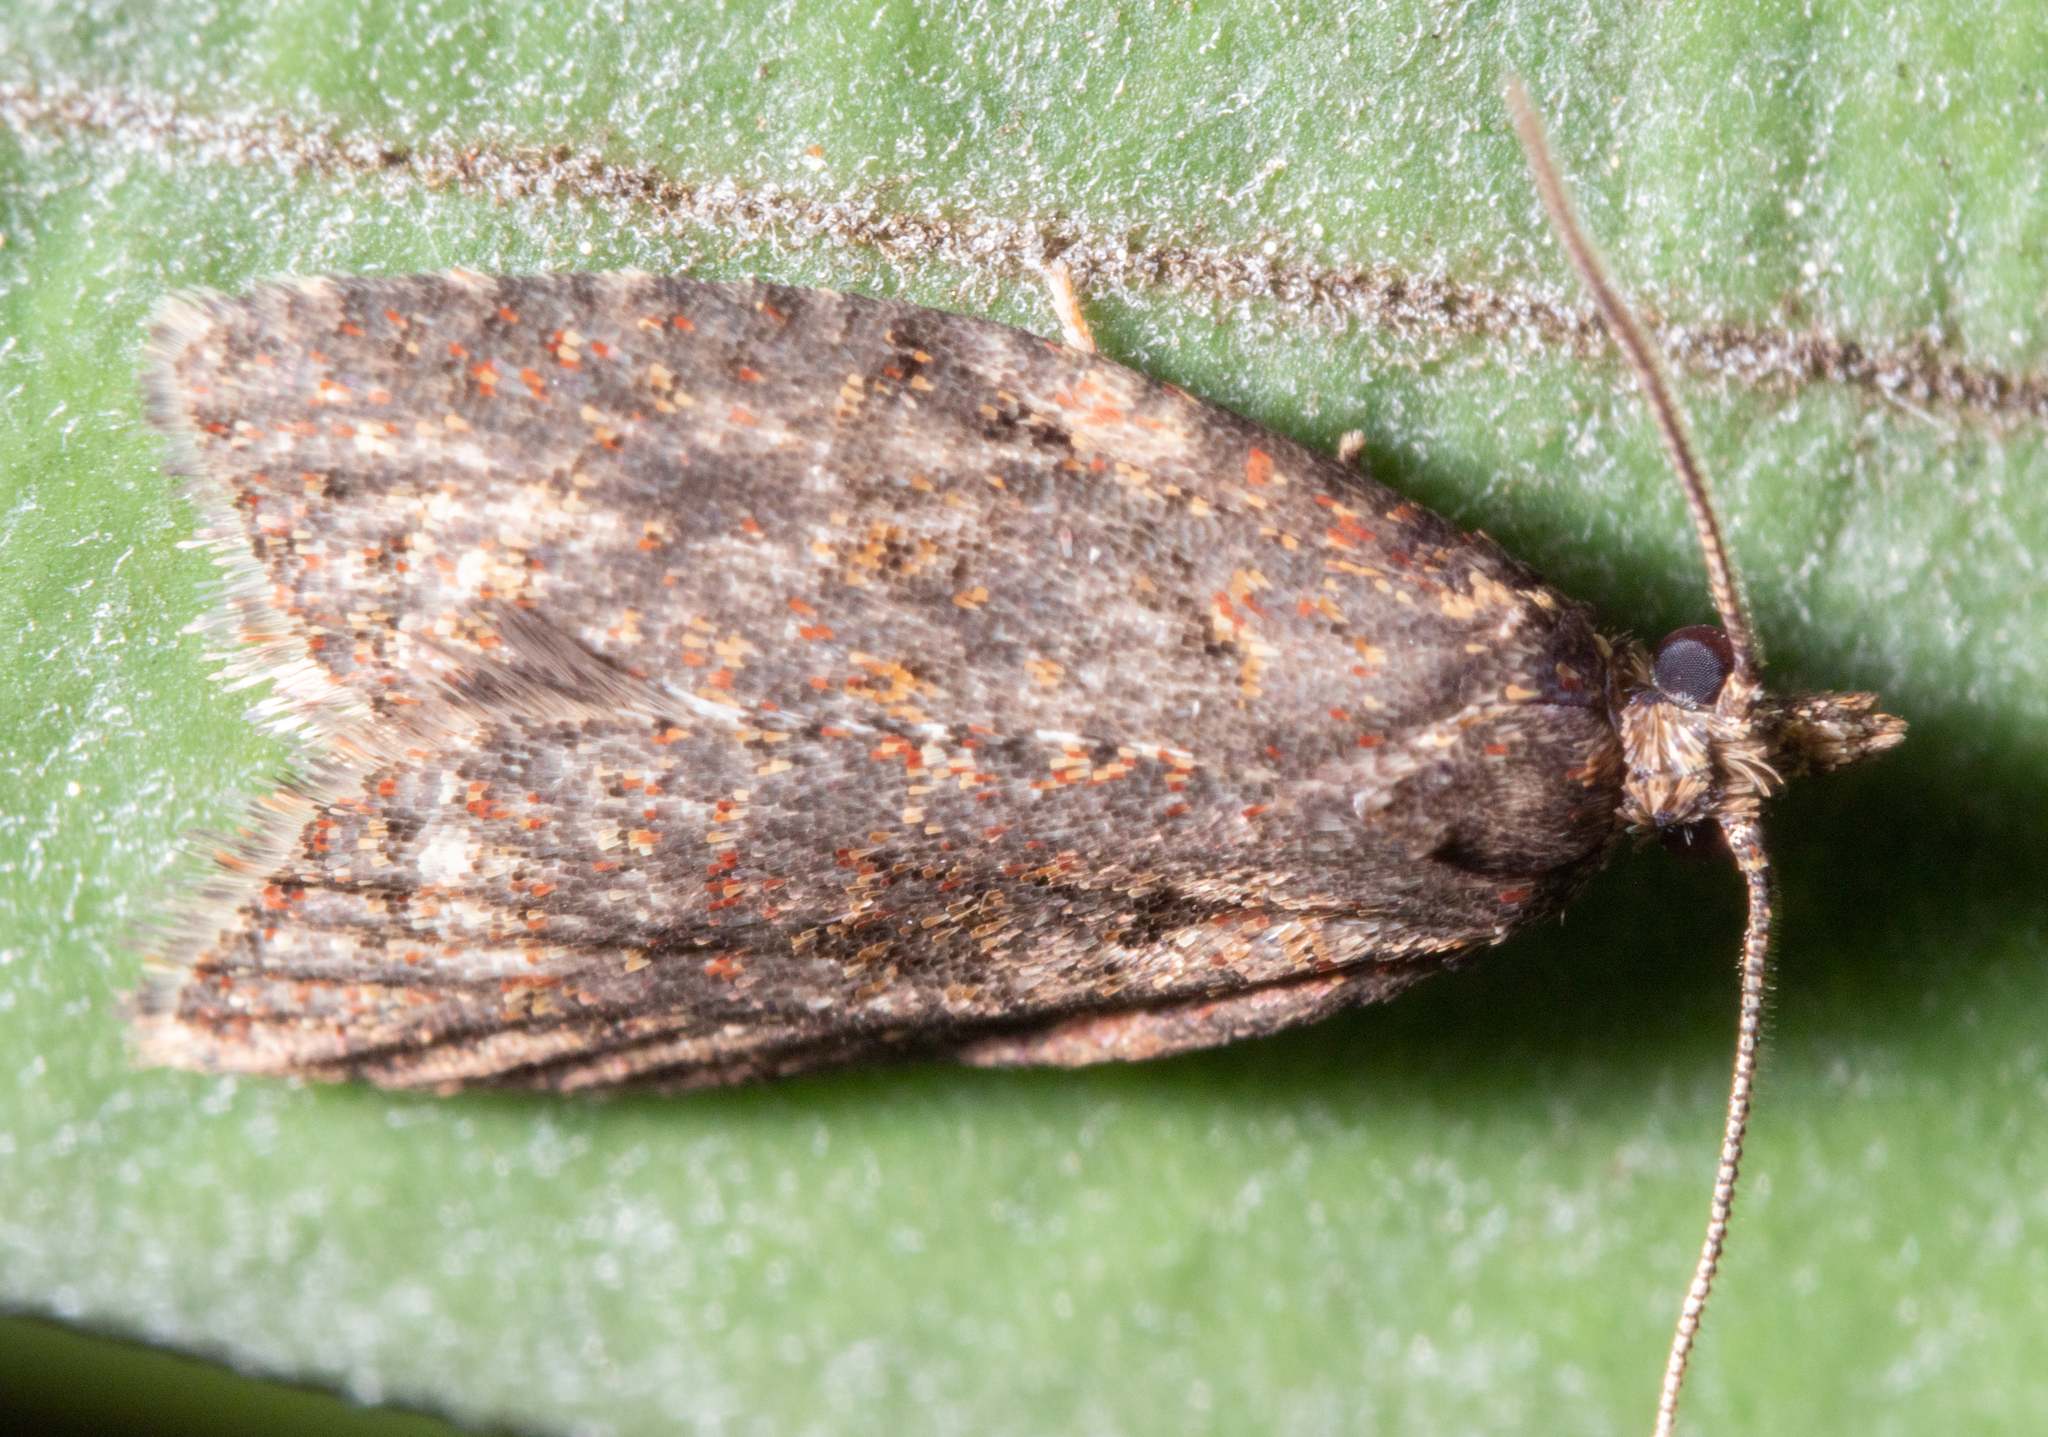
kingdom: Animalia
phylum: Arthropoda
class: Insecta
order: Lepidoptera
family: Tortricidae
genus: Capua
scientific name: Capua intractana
